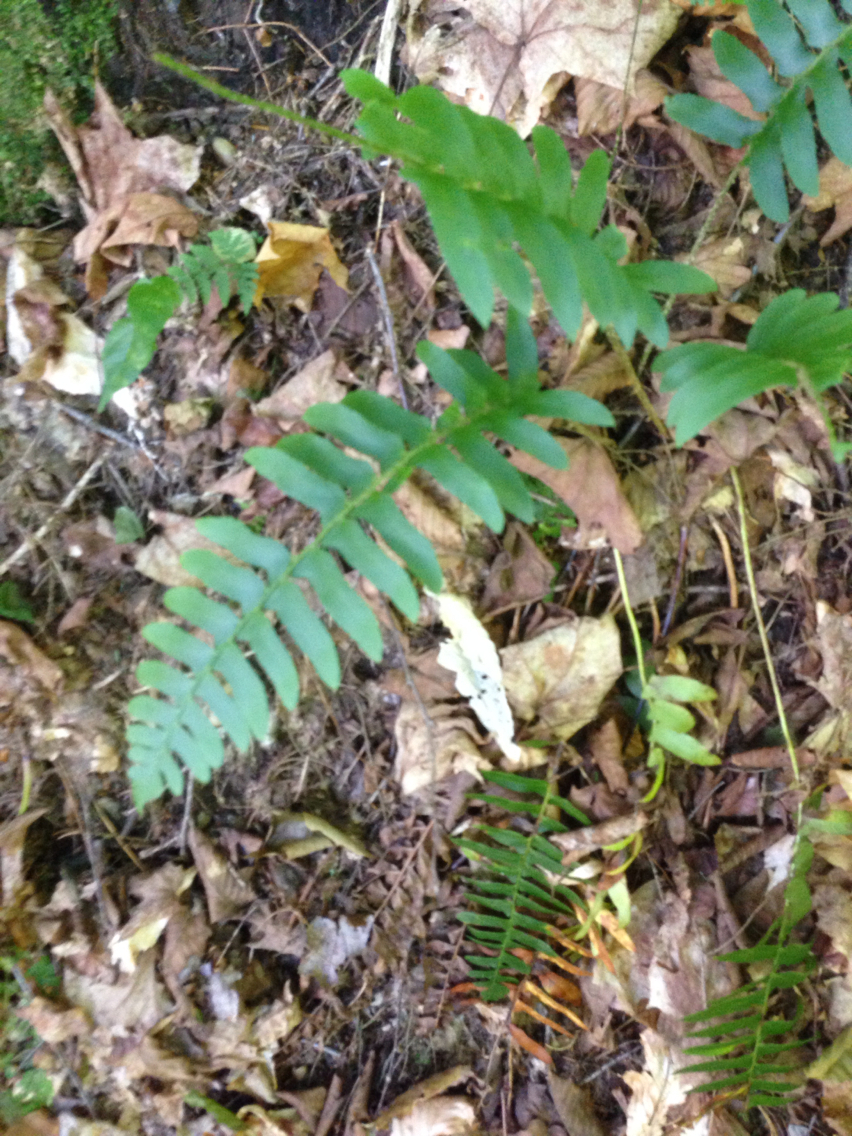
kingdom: Plantae
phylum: Tracheophyta
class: Polypodiopsida
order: Polypodiales
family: Dryopteridaceae
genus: Polystichum
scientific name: Polystichum acrostichoides
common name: Christmas fern
